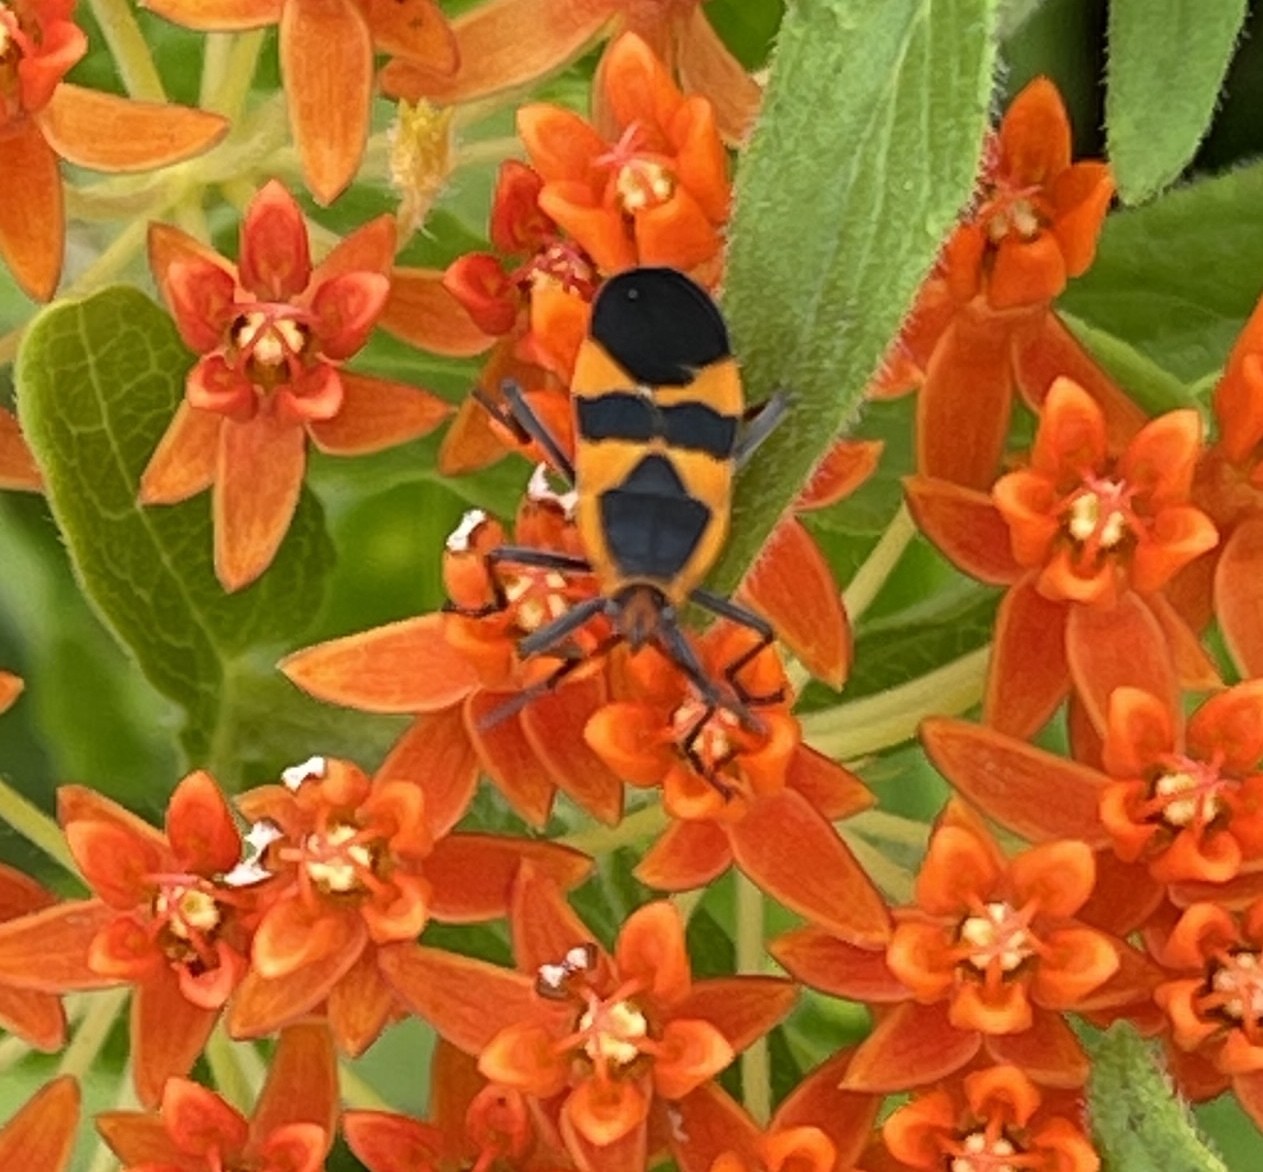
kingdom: Animalia
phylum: Arthropoda
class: Insecta
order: Hemiptera
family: Lygaeidae
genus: Oncopeltus
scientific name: Oncopeltus fasciatus
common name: Large milkweed bug
